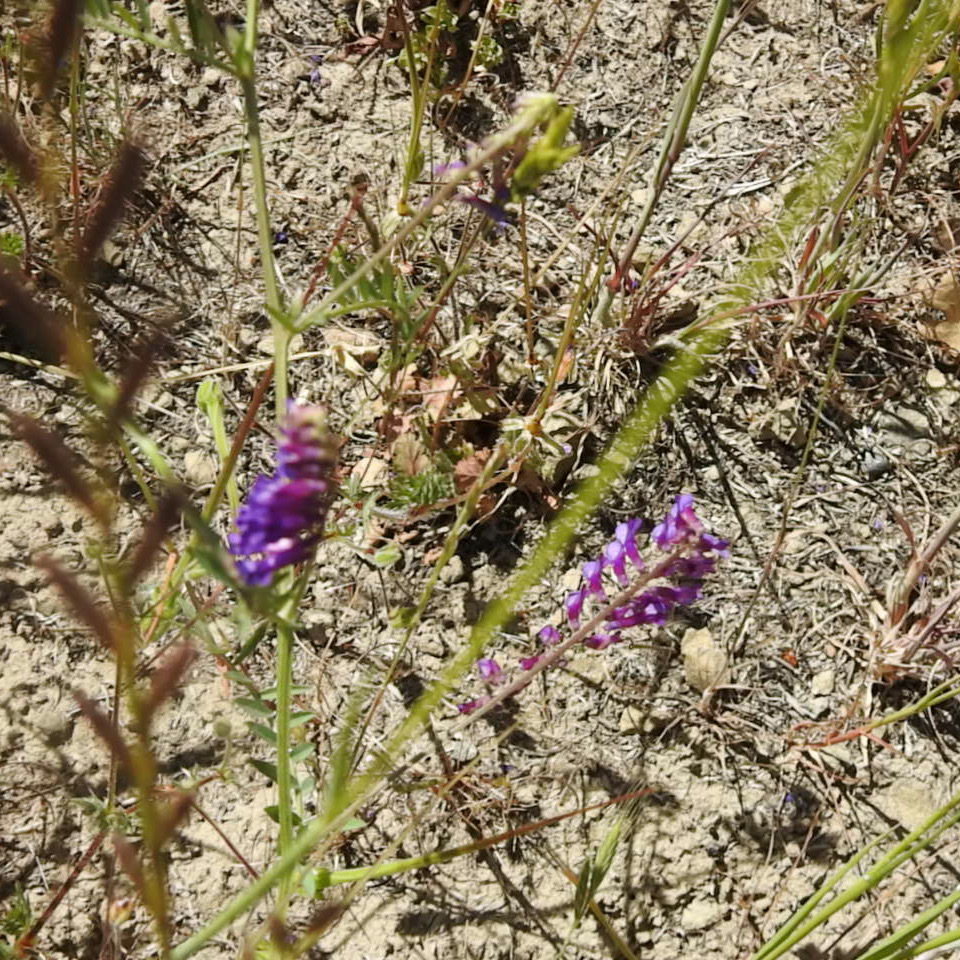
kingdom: Plantae
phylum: Tracheophyta
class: Magnoliopsida
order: Fabales
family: Fabaceae
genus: Vicia
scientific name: Vicia villosa
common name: Fodder vetch
